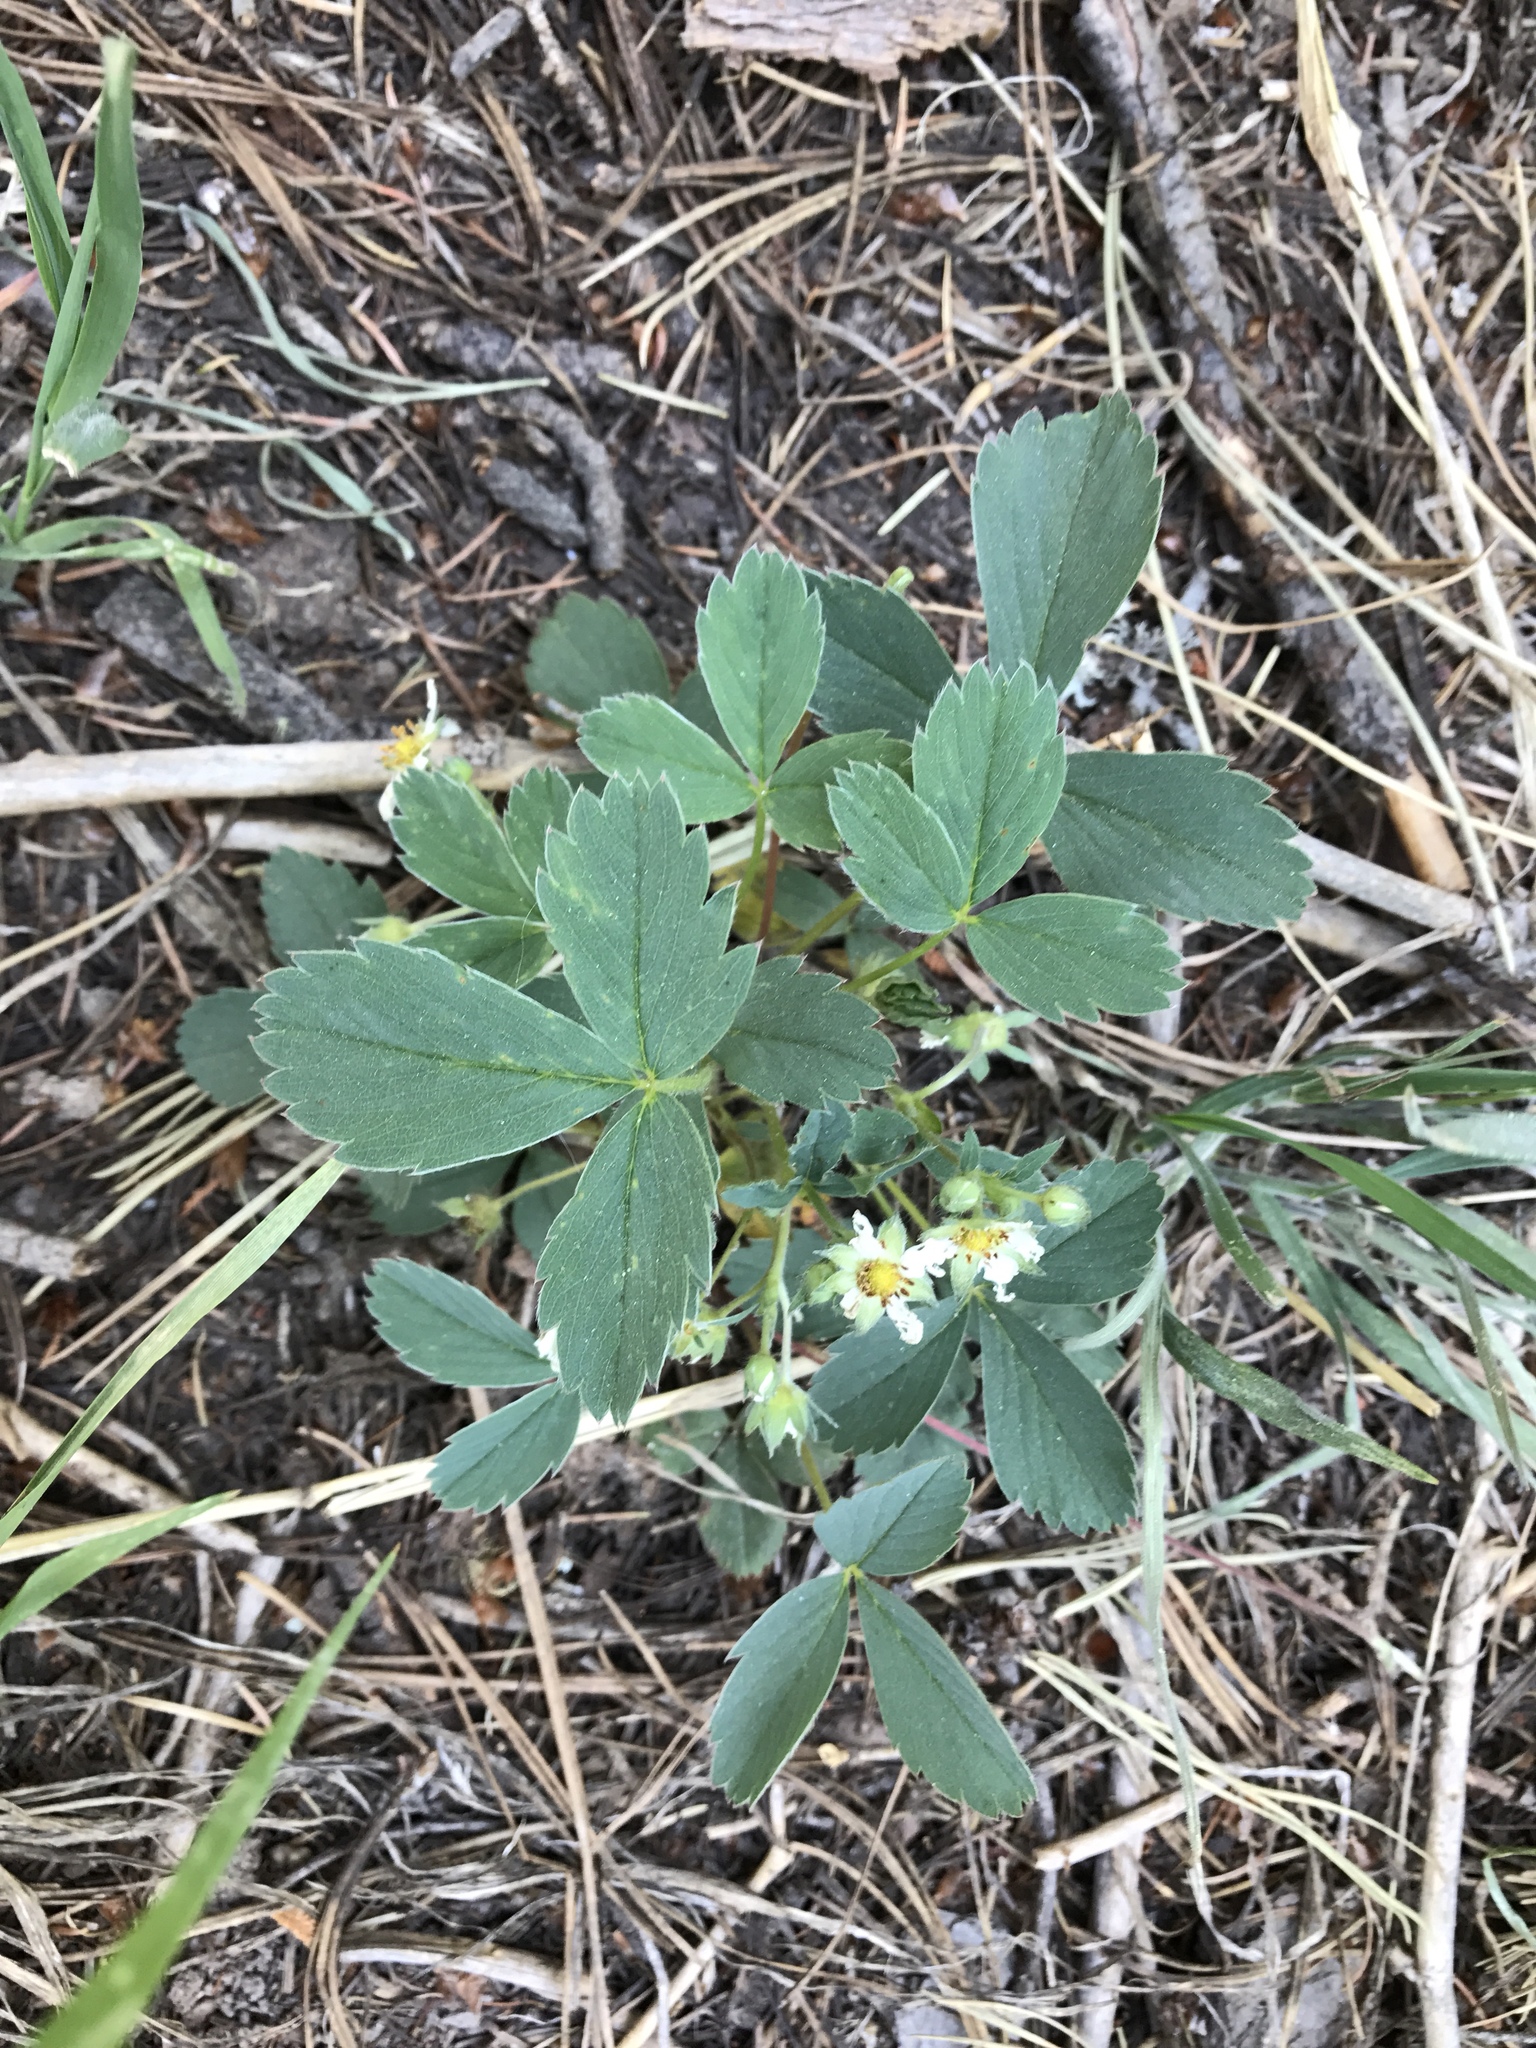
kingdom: Plantae
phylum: Tracheophyta
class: Magnoliopsida
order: Rosales
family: Rosaceae
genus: Fragaria
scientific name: Fragaria virginiana
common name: Thickleaved wild strawberry
